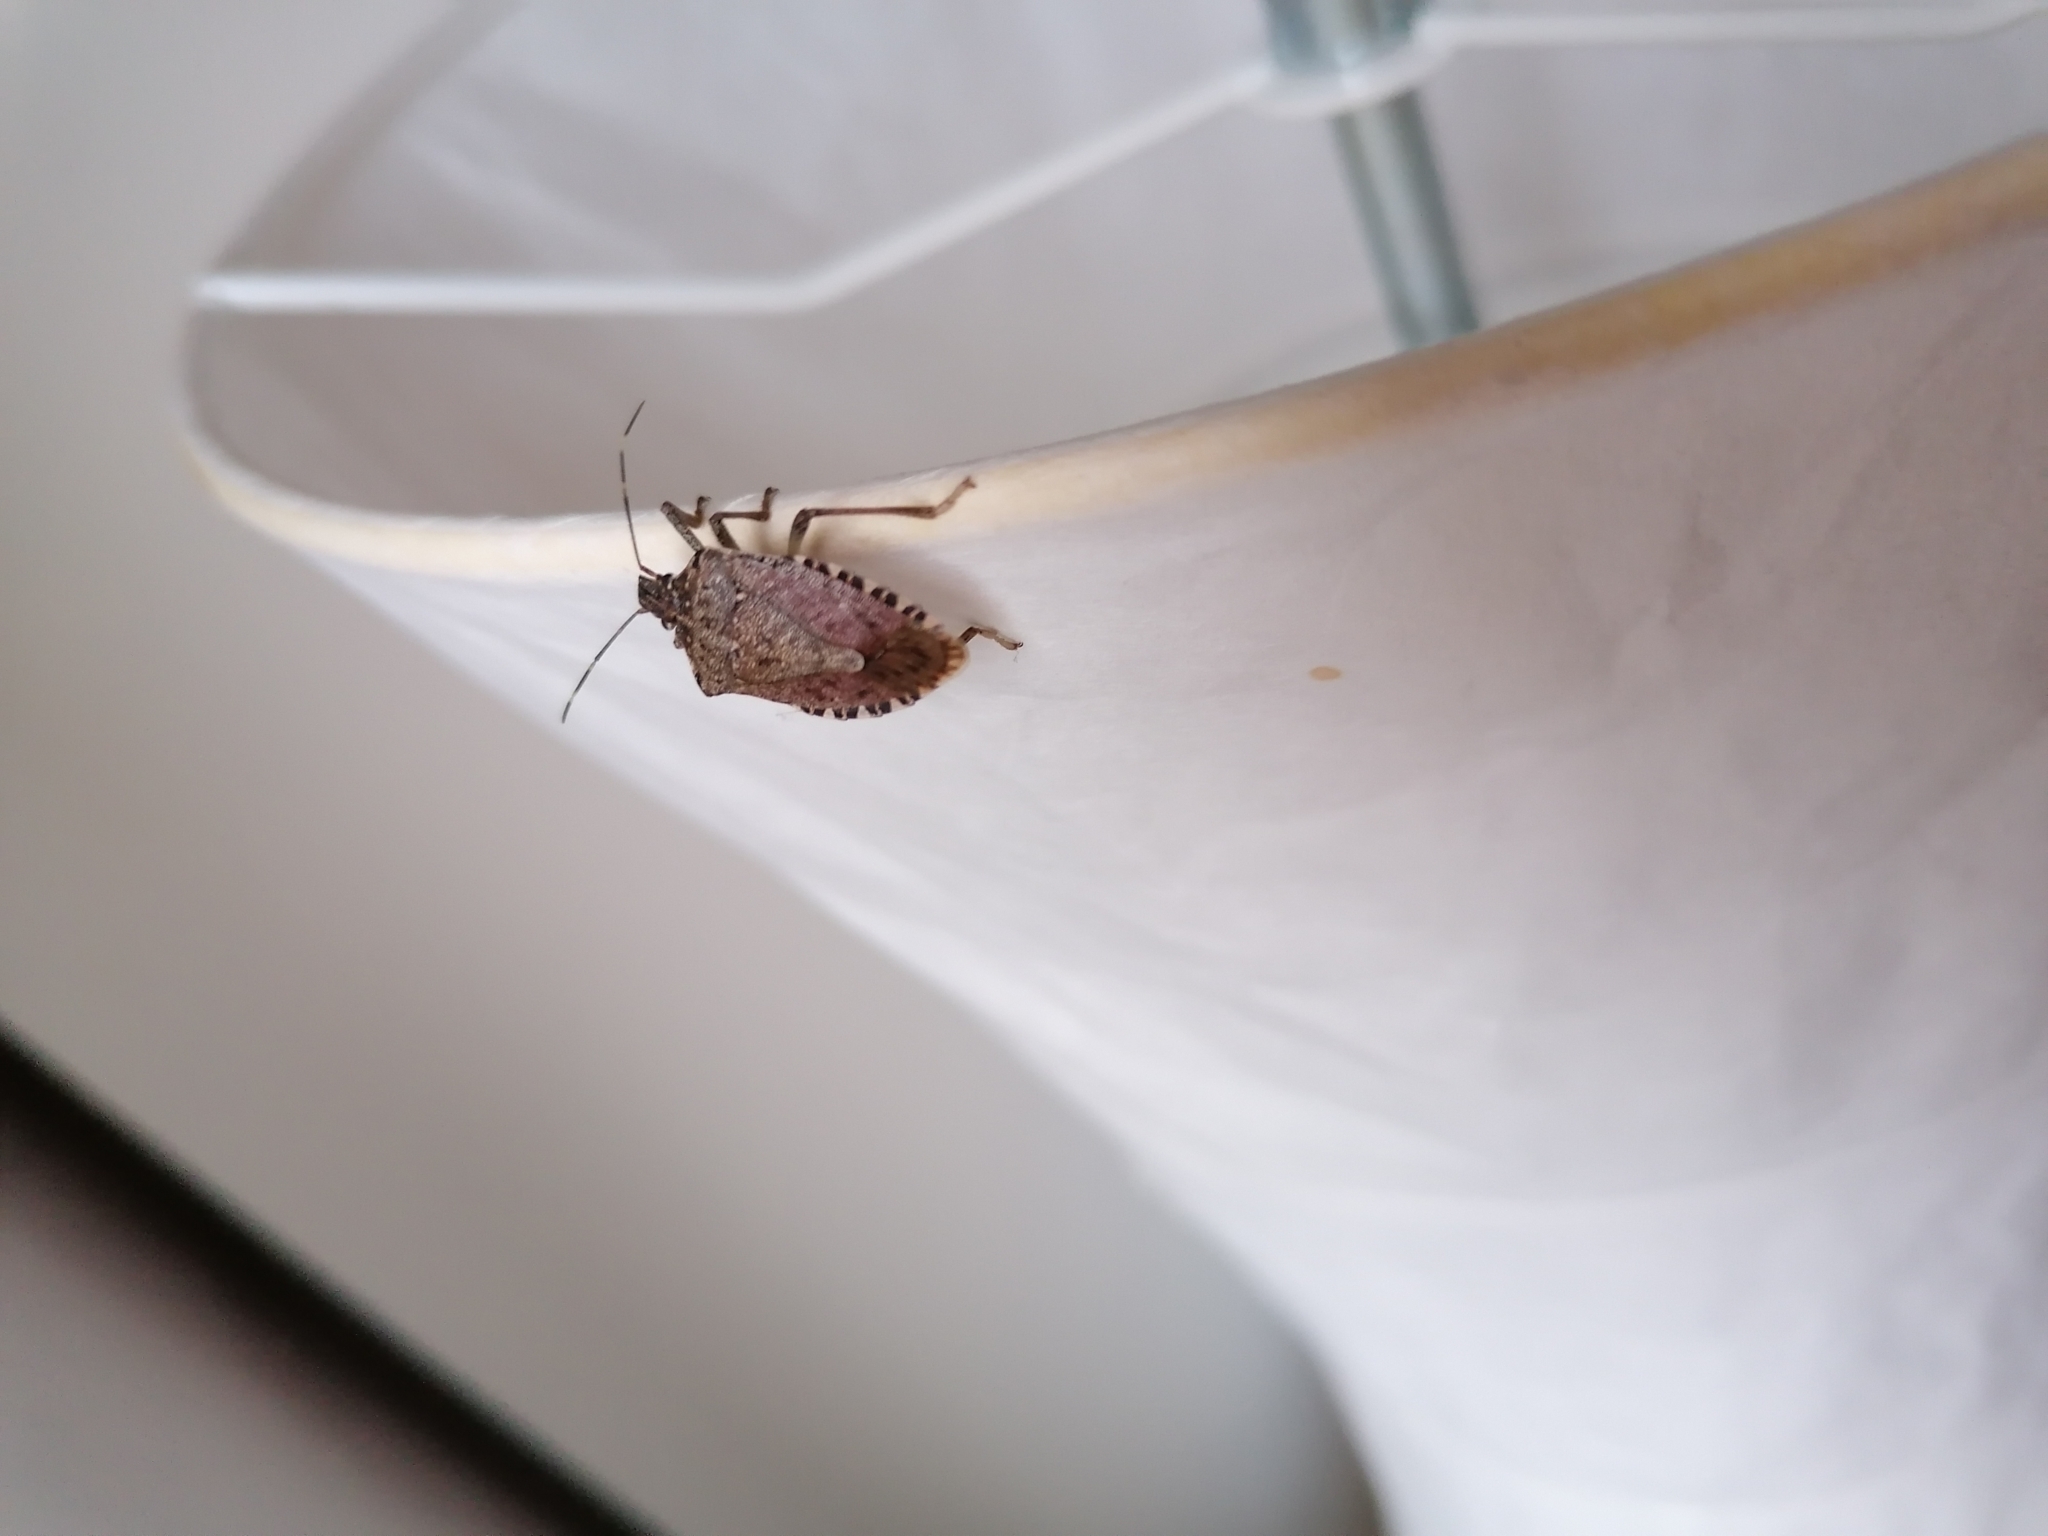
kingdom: Animalia
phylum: Arthropoda
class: Insecta
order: Hemiptera
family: Pentatomidae
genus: Halyomorpha
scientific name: Halyomorpha halys
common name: Brown marmorated stink bug
